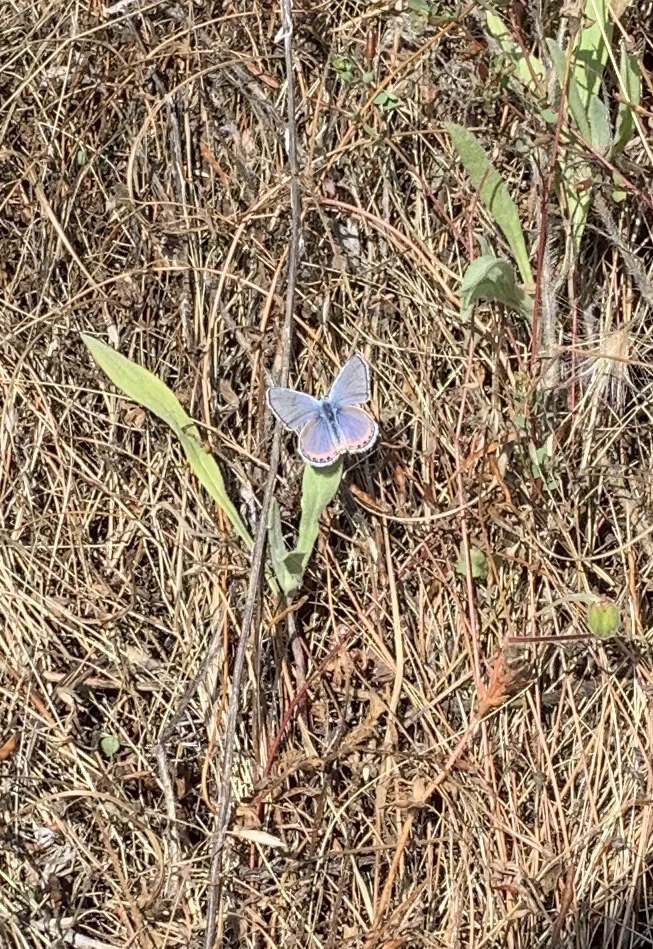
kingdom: Animalia
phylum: Arthropoda
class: Insecta
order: Lepidoptera
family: Lycaenidae
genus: Icaricia
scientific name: Icaricia acmon
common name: Acmon blue
